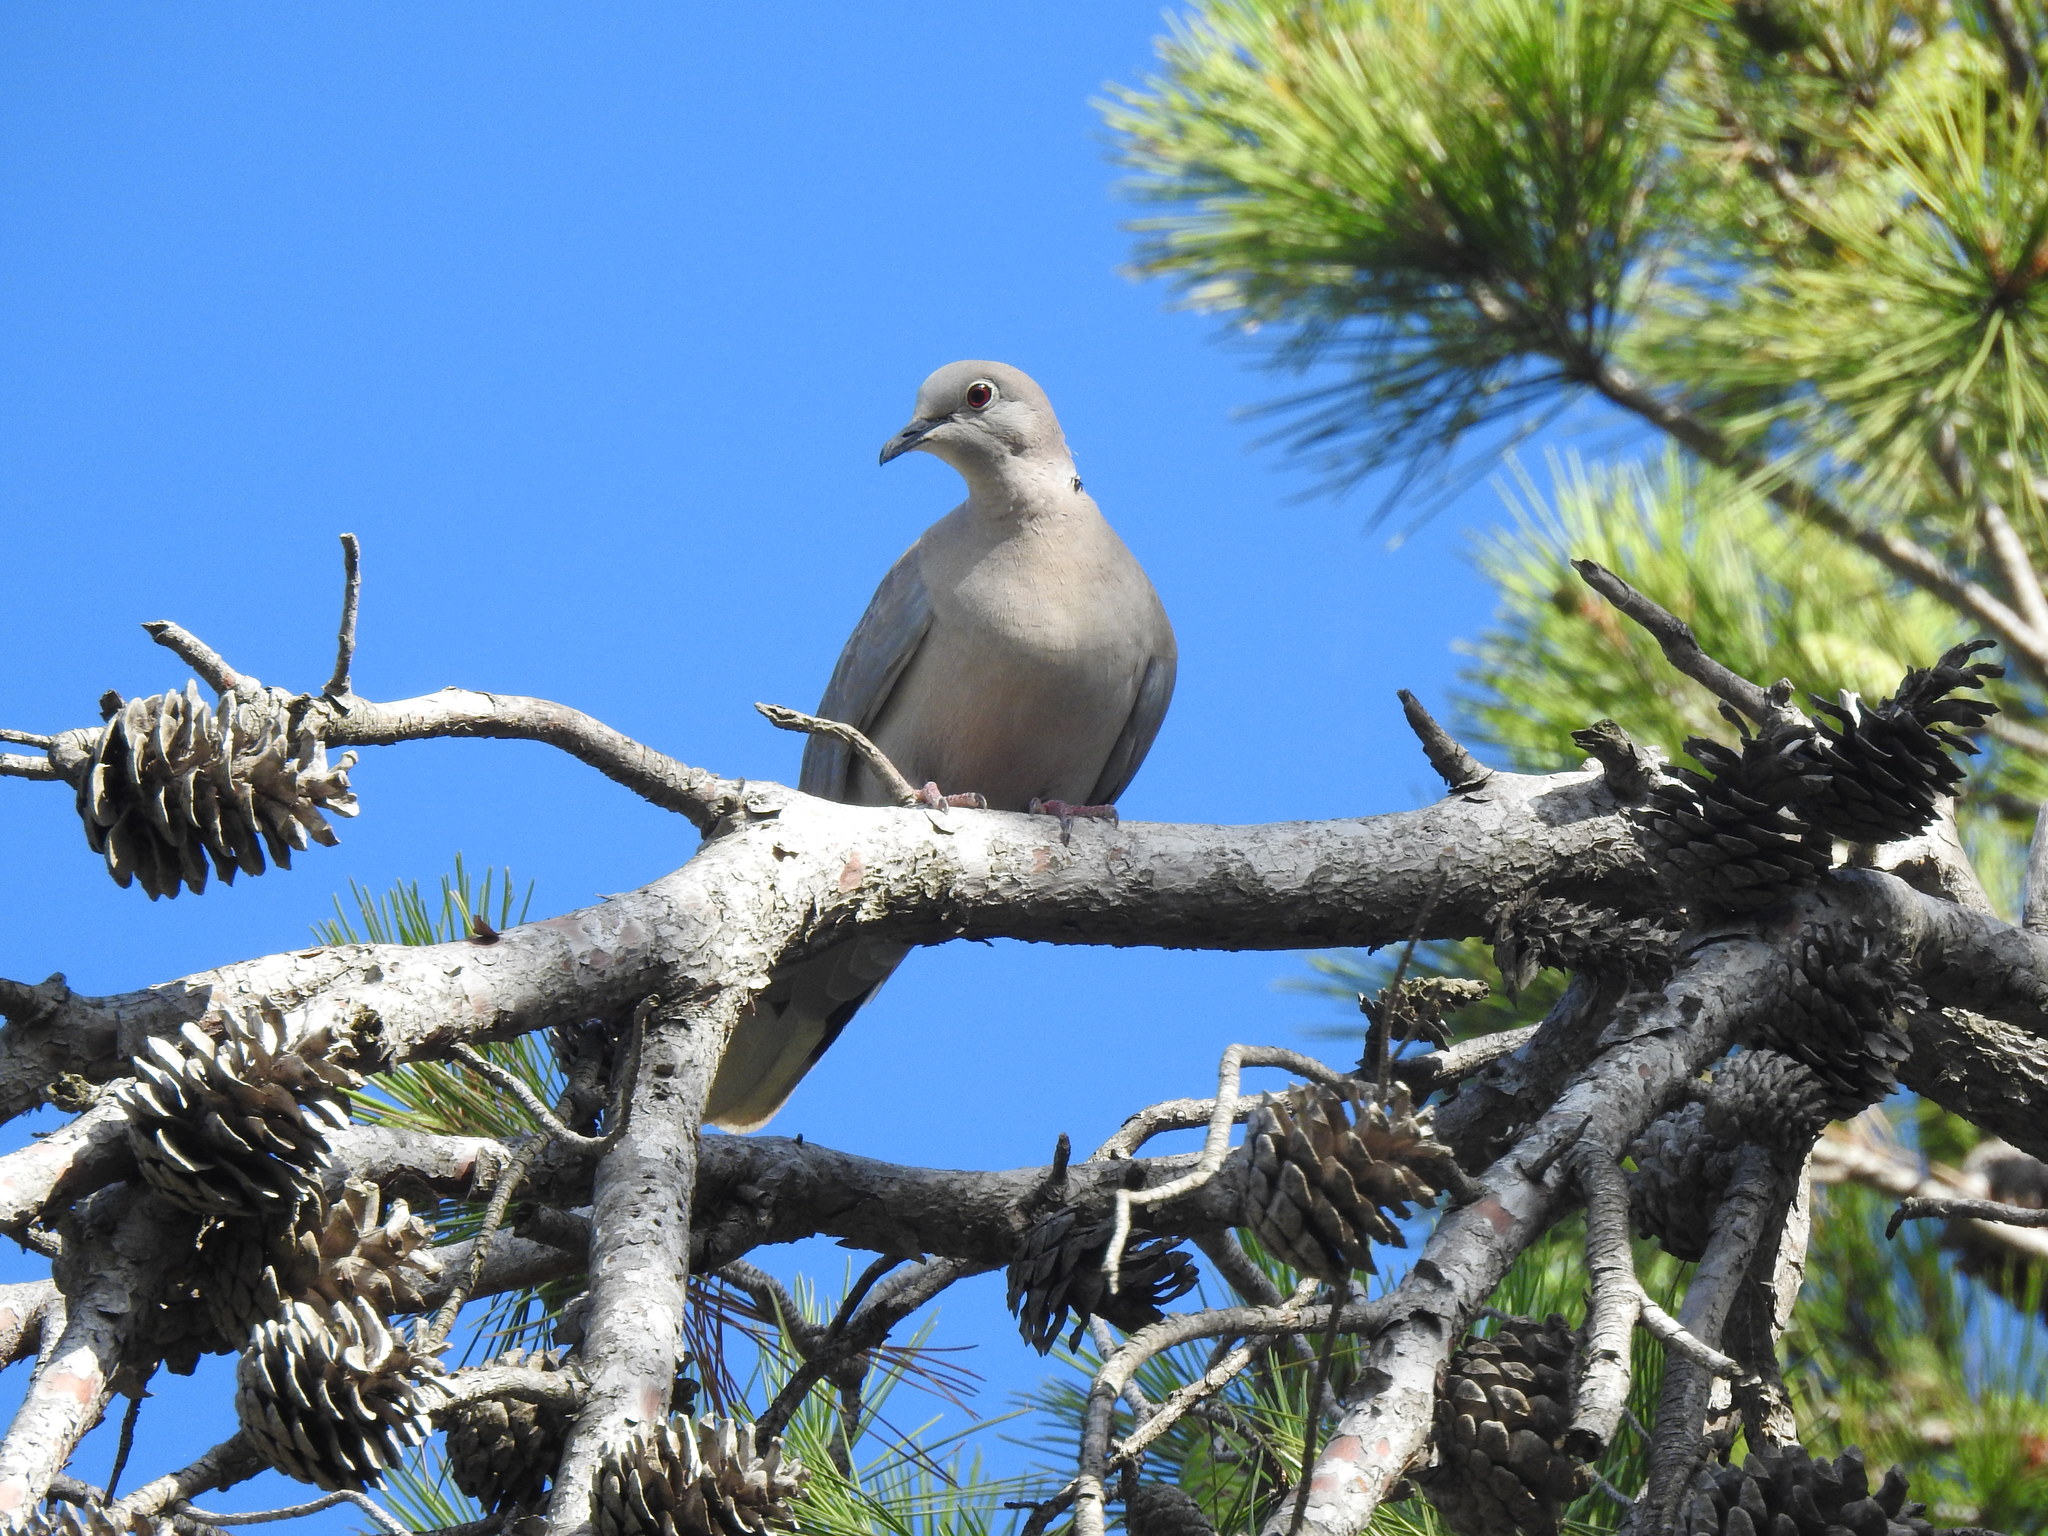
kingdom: Animalia
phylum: Chordata
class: Aves
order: Columbiformes
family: Columbidae
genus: Streptopelia
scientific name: Streptopelia decaocto
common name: Eurasian collared dove
